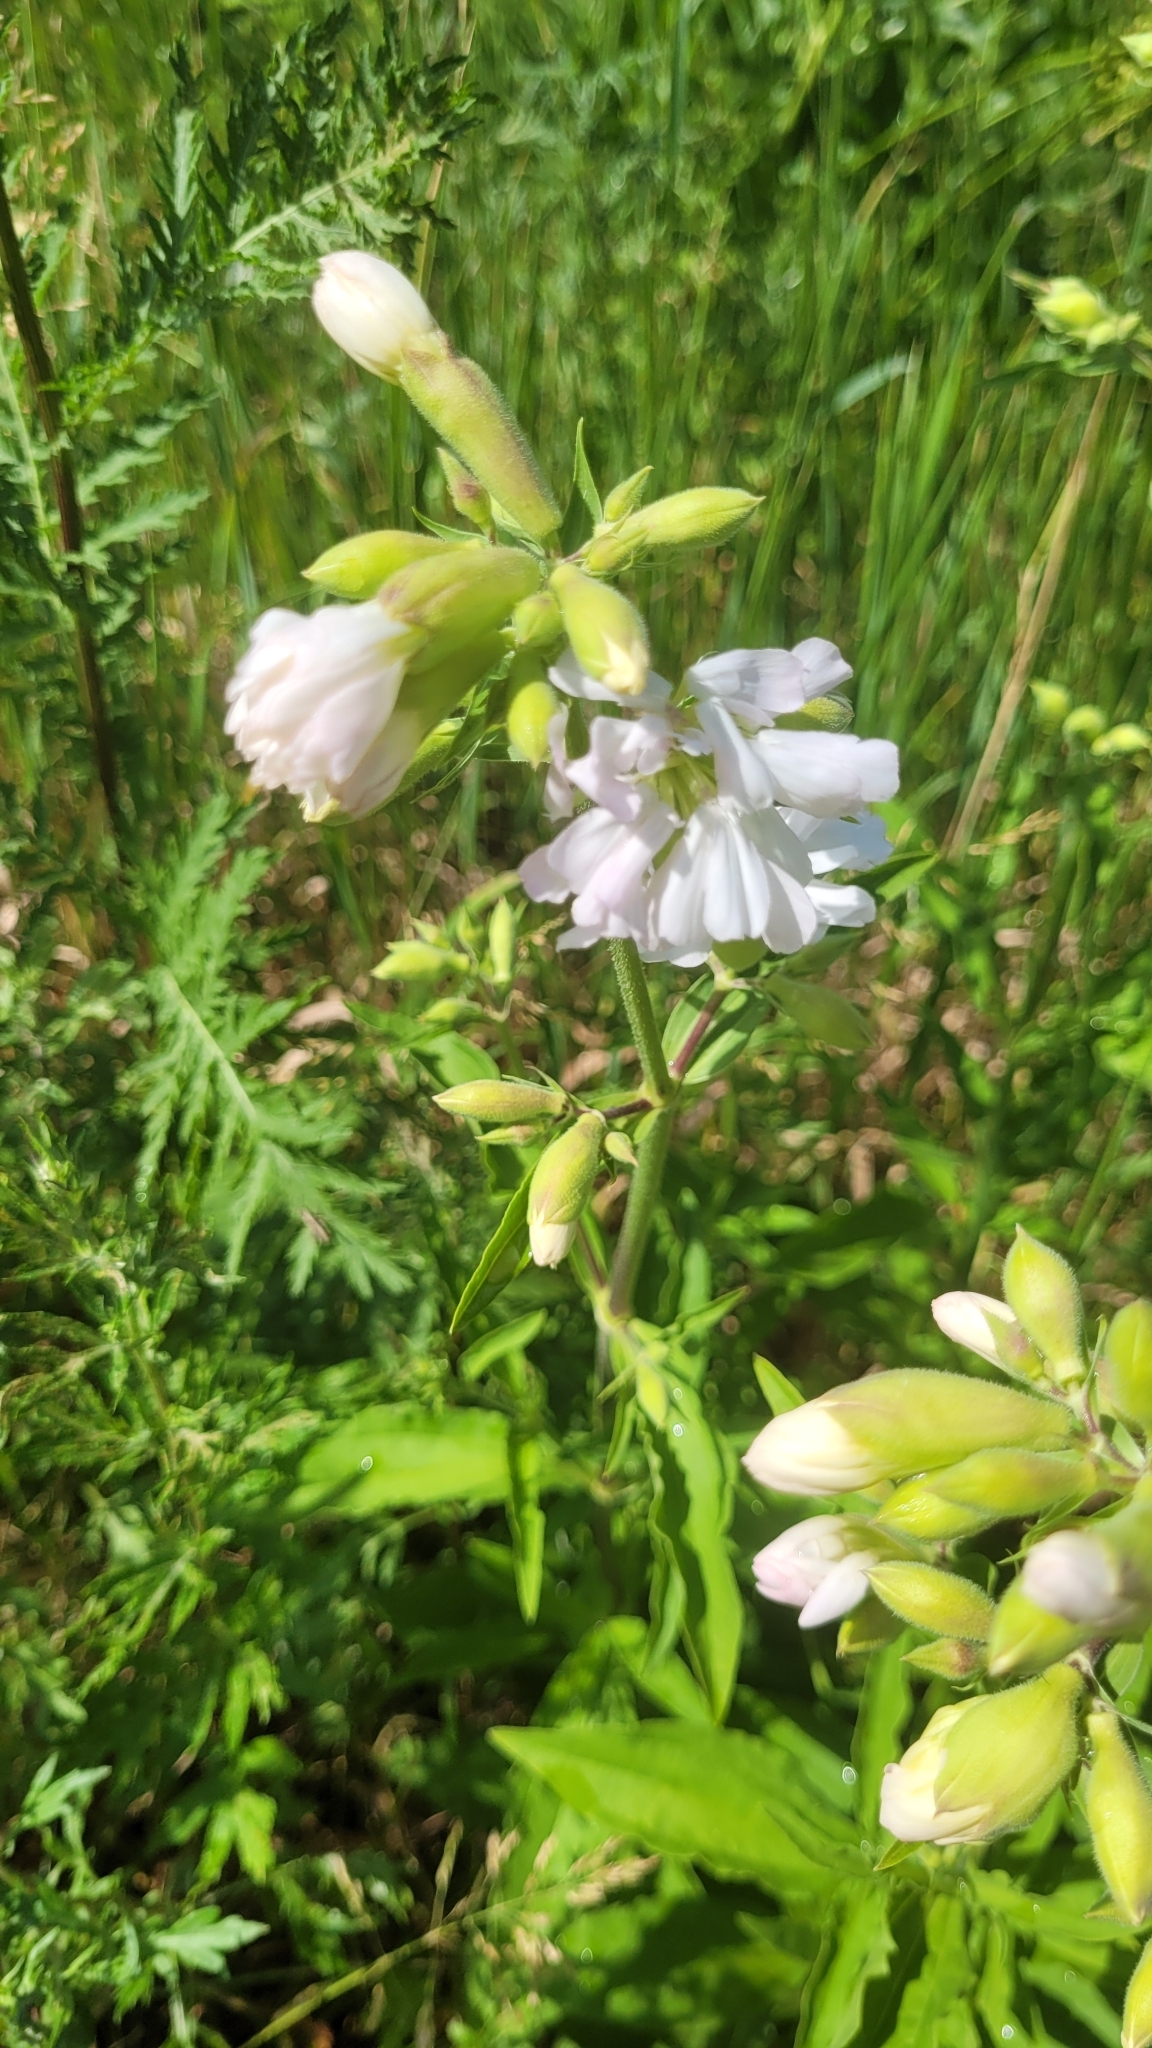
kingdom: Plantae
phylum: Tracheophyta
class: Magnoliopsida
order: Caryophyllales
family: Caryophyllaceae
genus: Saponaria
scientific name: Saponaria officinalis
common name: Soapwort
